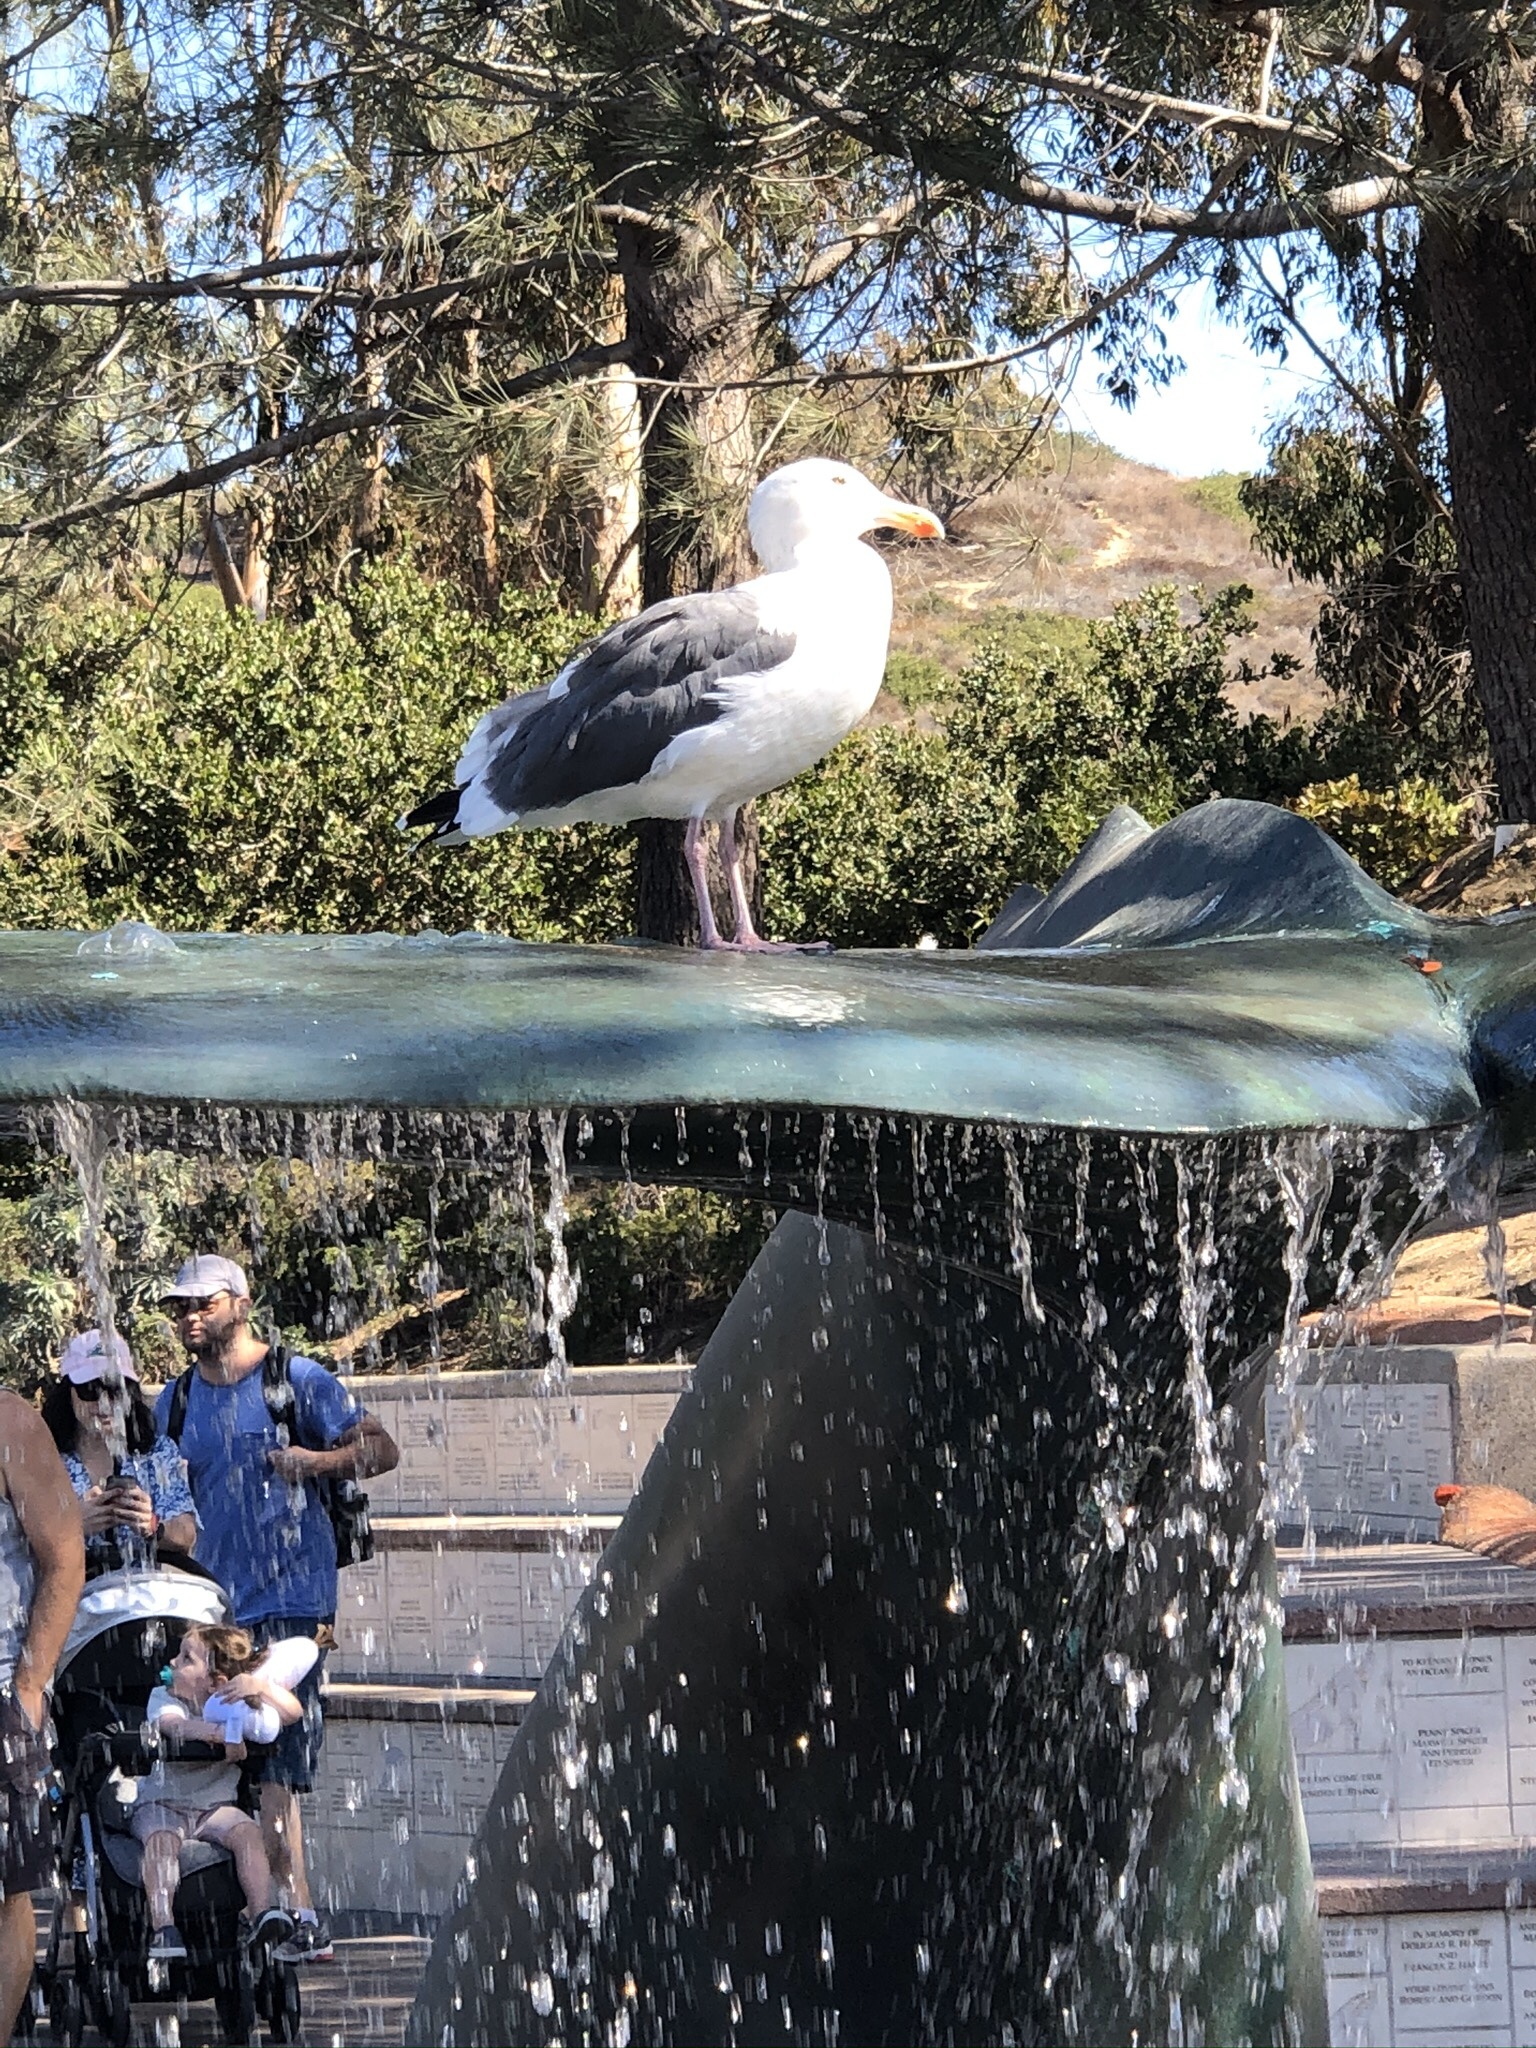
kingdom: Animalia
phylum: Chordata
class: Aves
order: Charadriiformes
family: Laridae
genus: Larus
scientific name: Larus occidentalis
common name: Western gull
